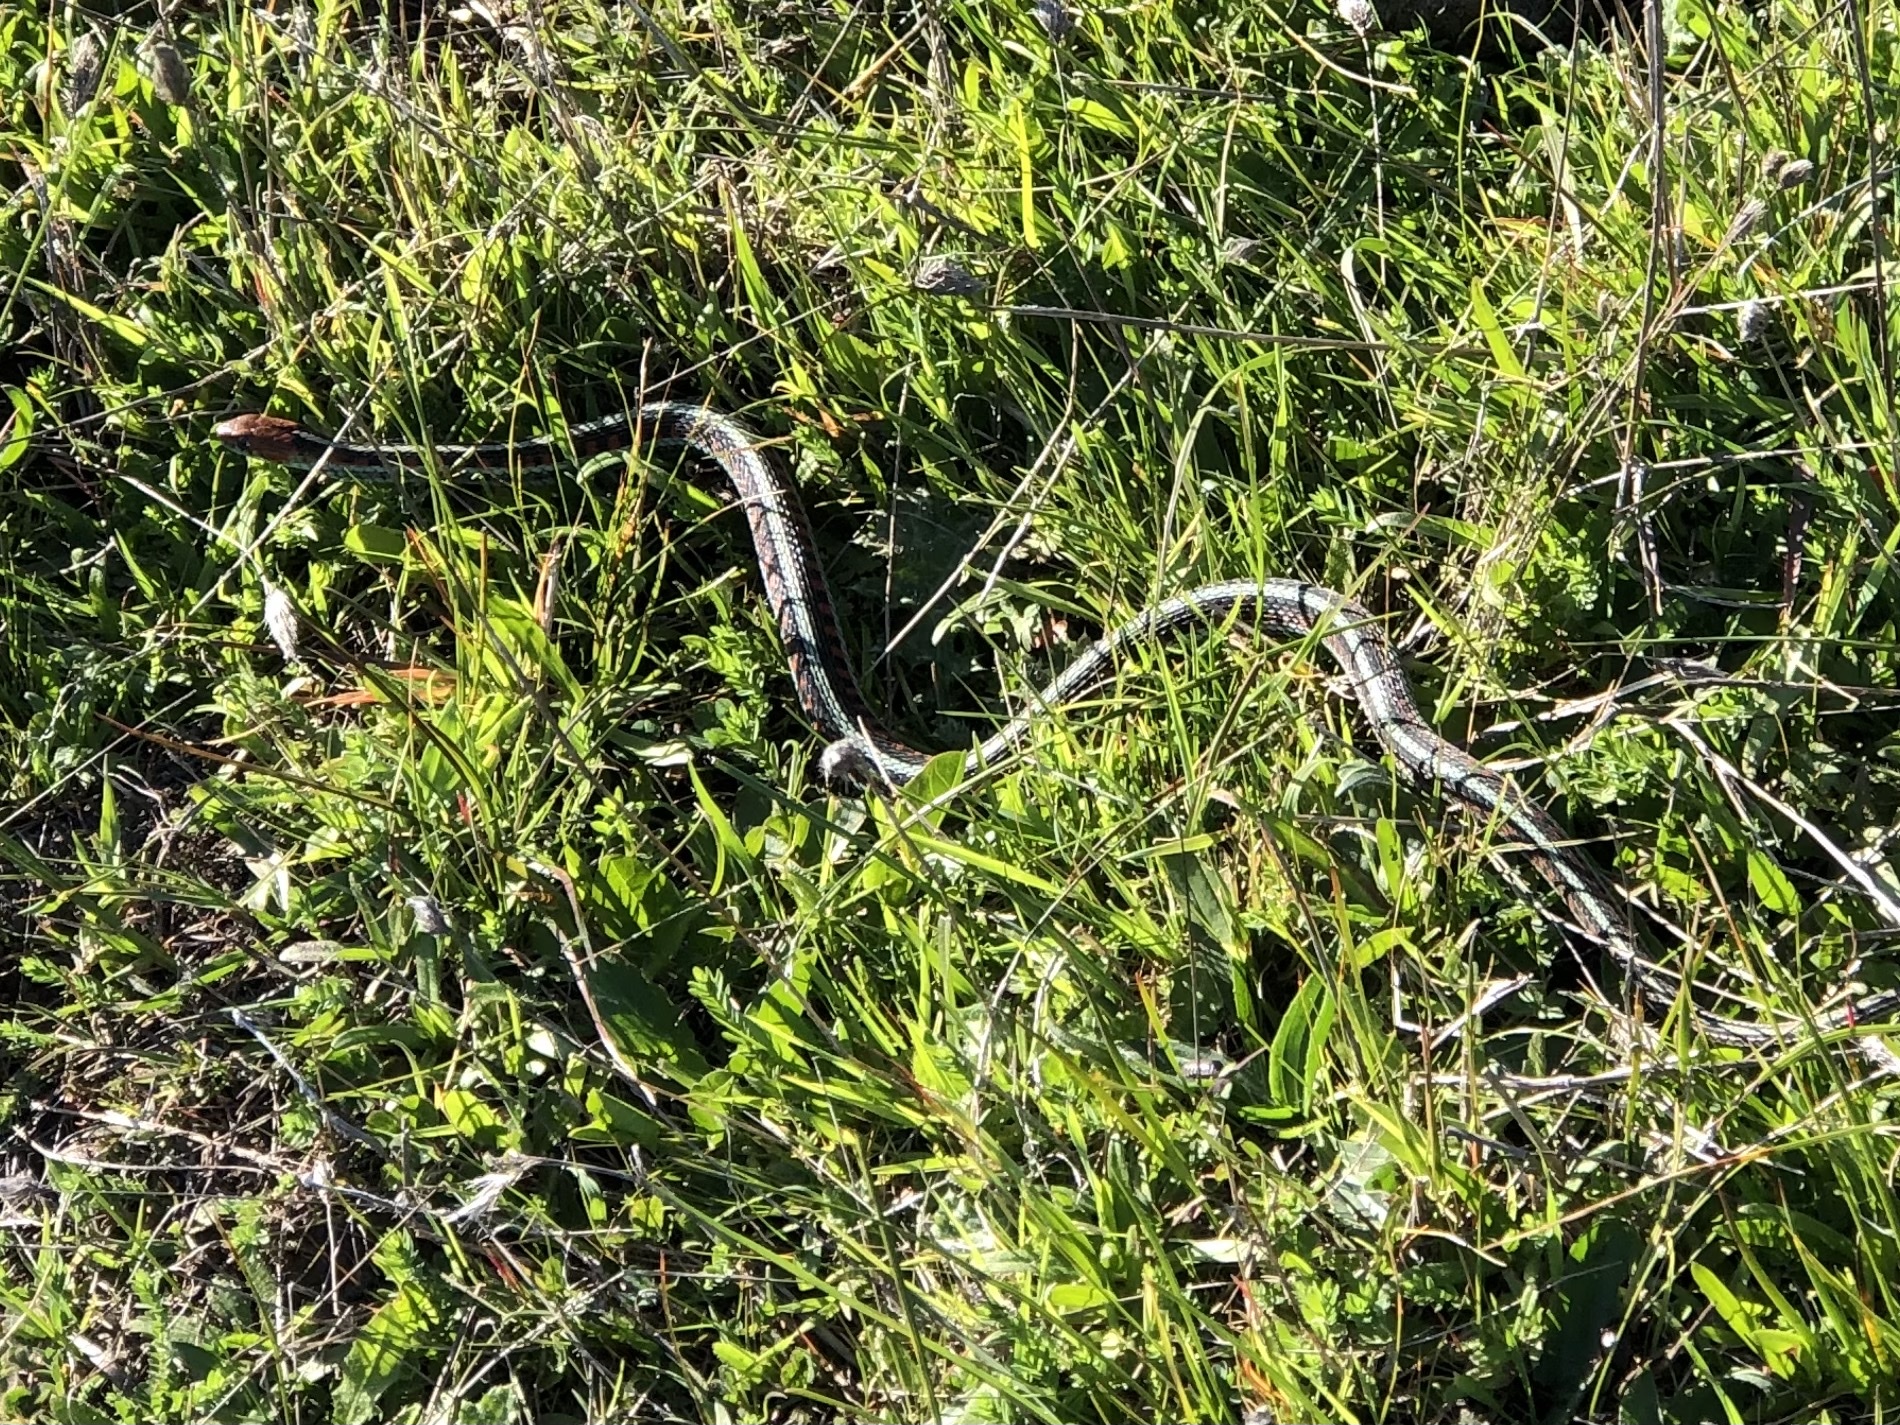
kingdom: Animalia
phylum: Chordata
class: Squamata
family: Colubridae
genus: Thamnophis
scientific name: Thamnophis sirtalis
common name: Common garter snake
